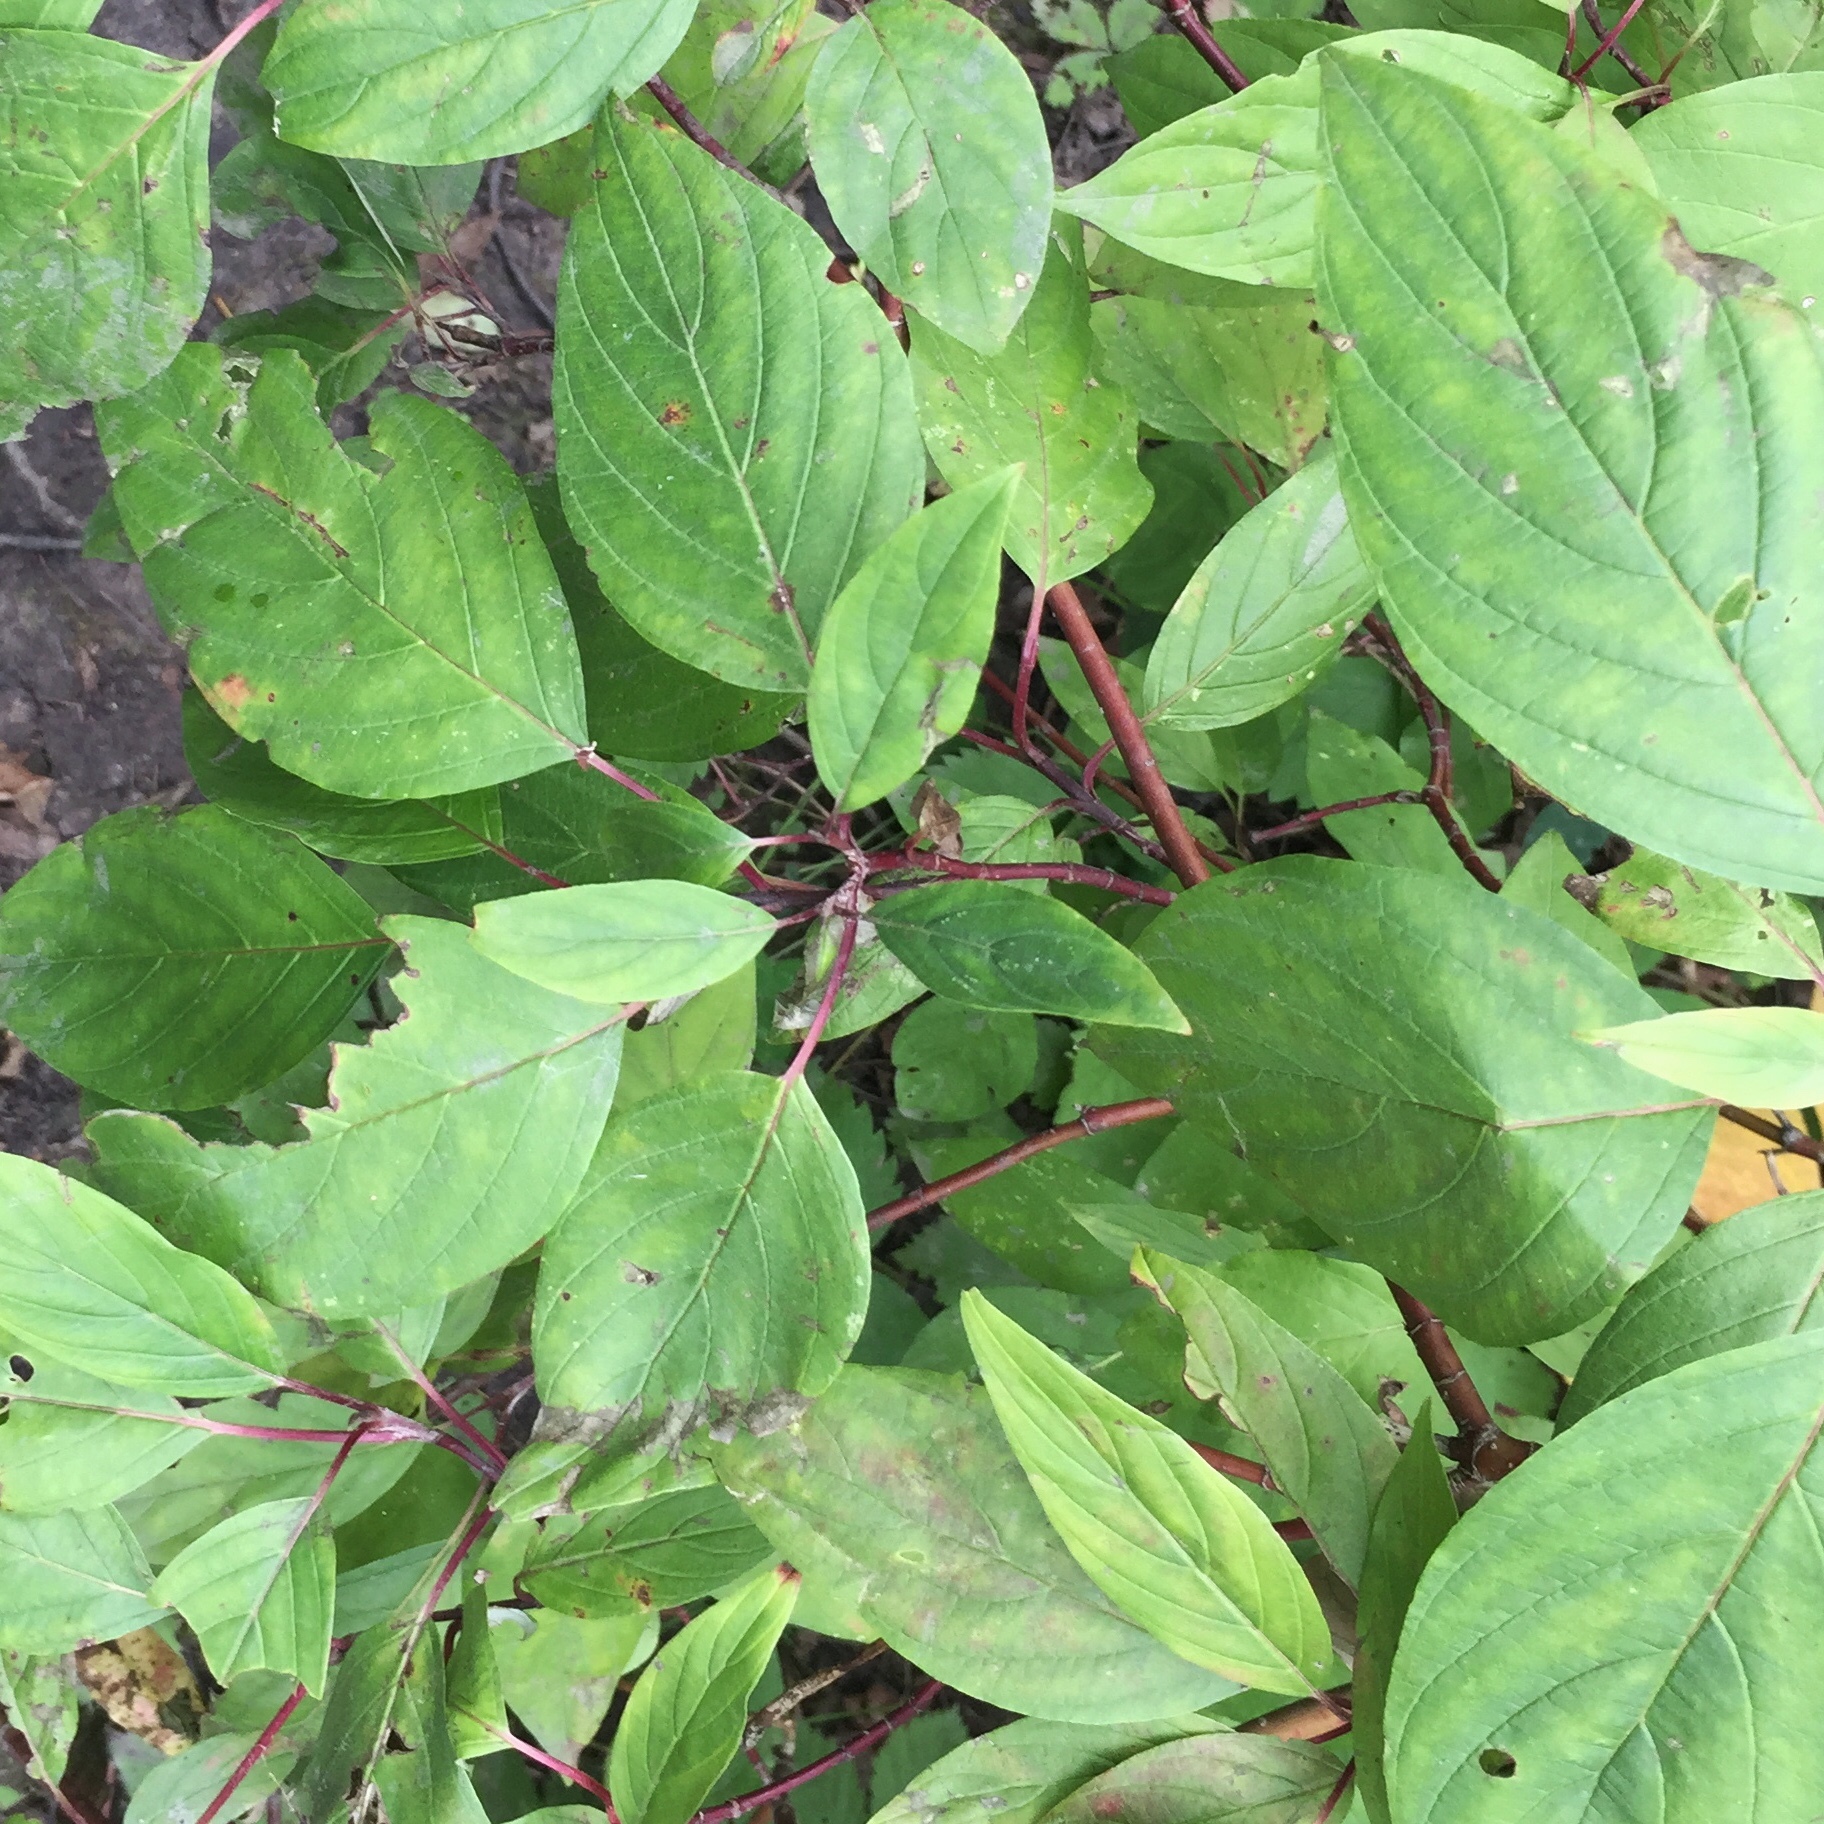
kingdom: Plantae
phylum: Tracheophyta
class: Magnoliopsida
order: Cornales
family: Cornaceae
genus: Cornus
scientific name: Cornus sericea
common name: Red-osier dogwood
